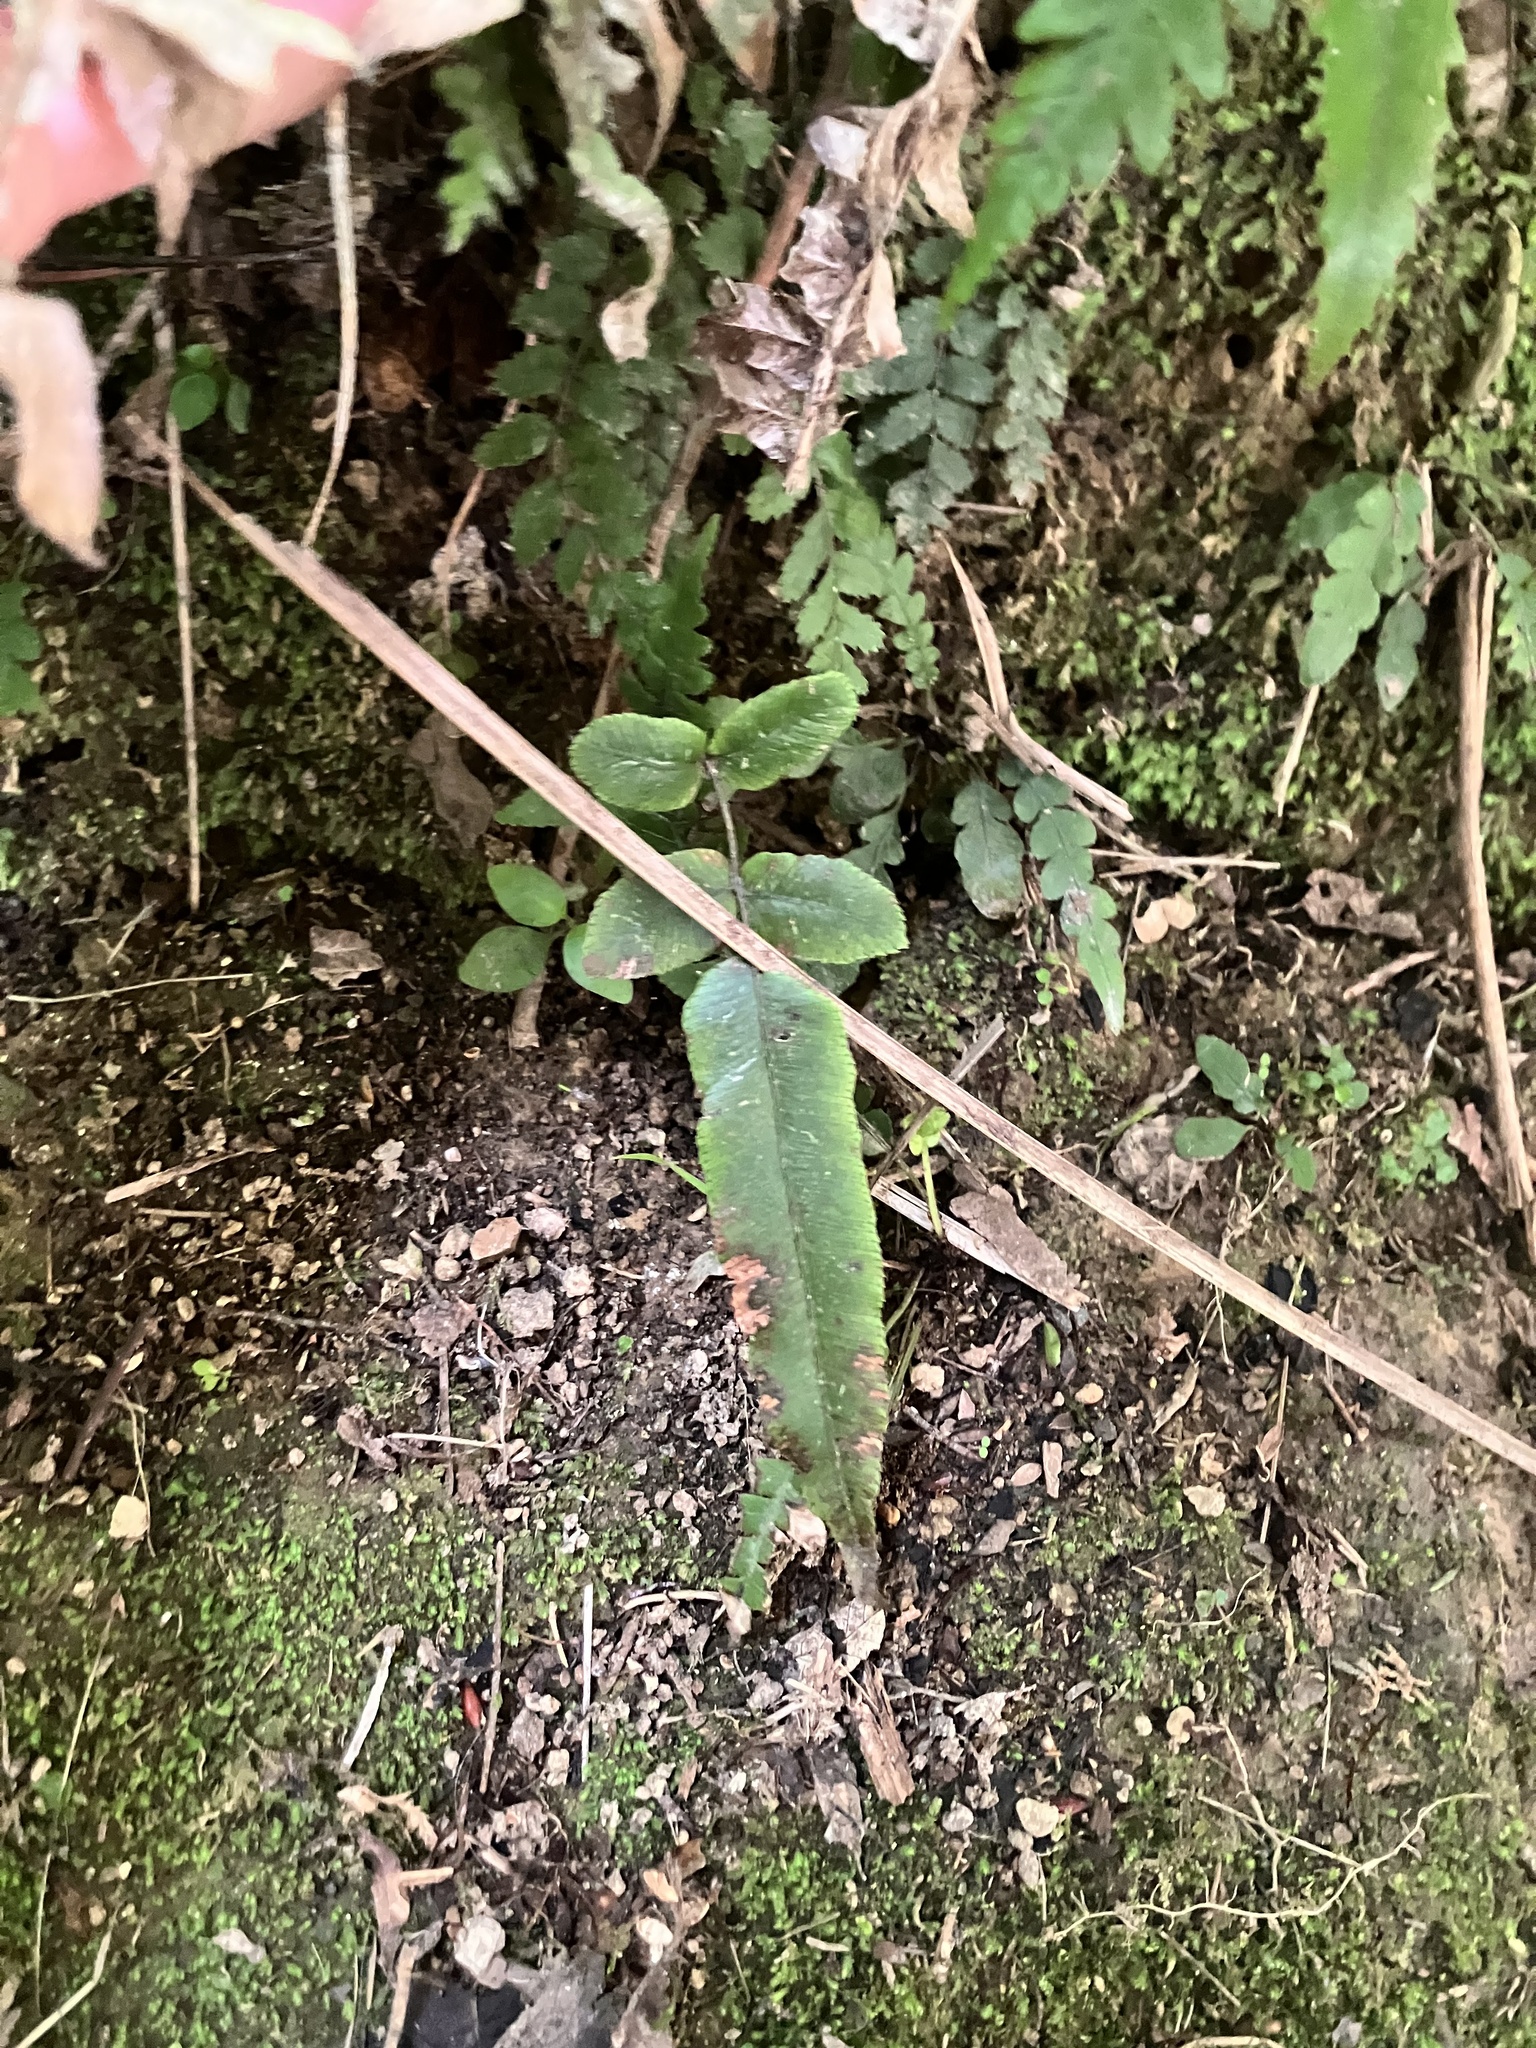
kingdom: Plantae
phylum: Tracheophyta
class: Polypodiopsida
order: Polypodiales
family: Blechnaceae
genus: Parablechnum
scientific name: Parablechnum procerum
